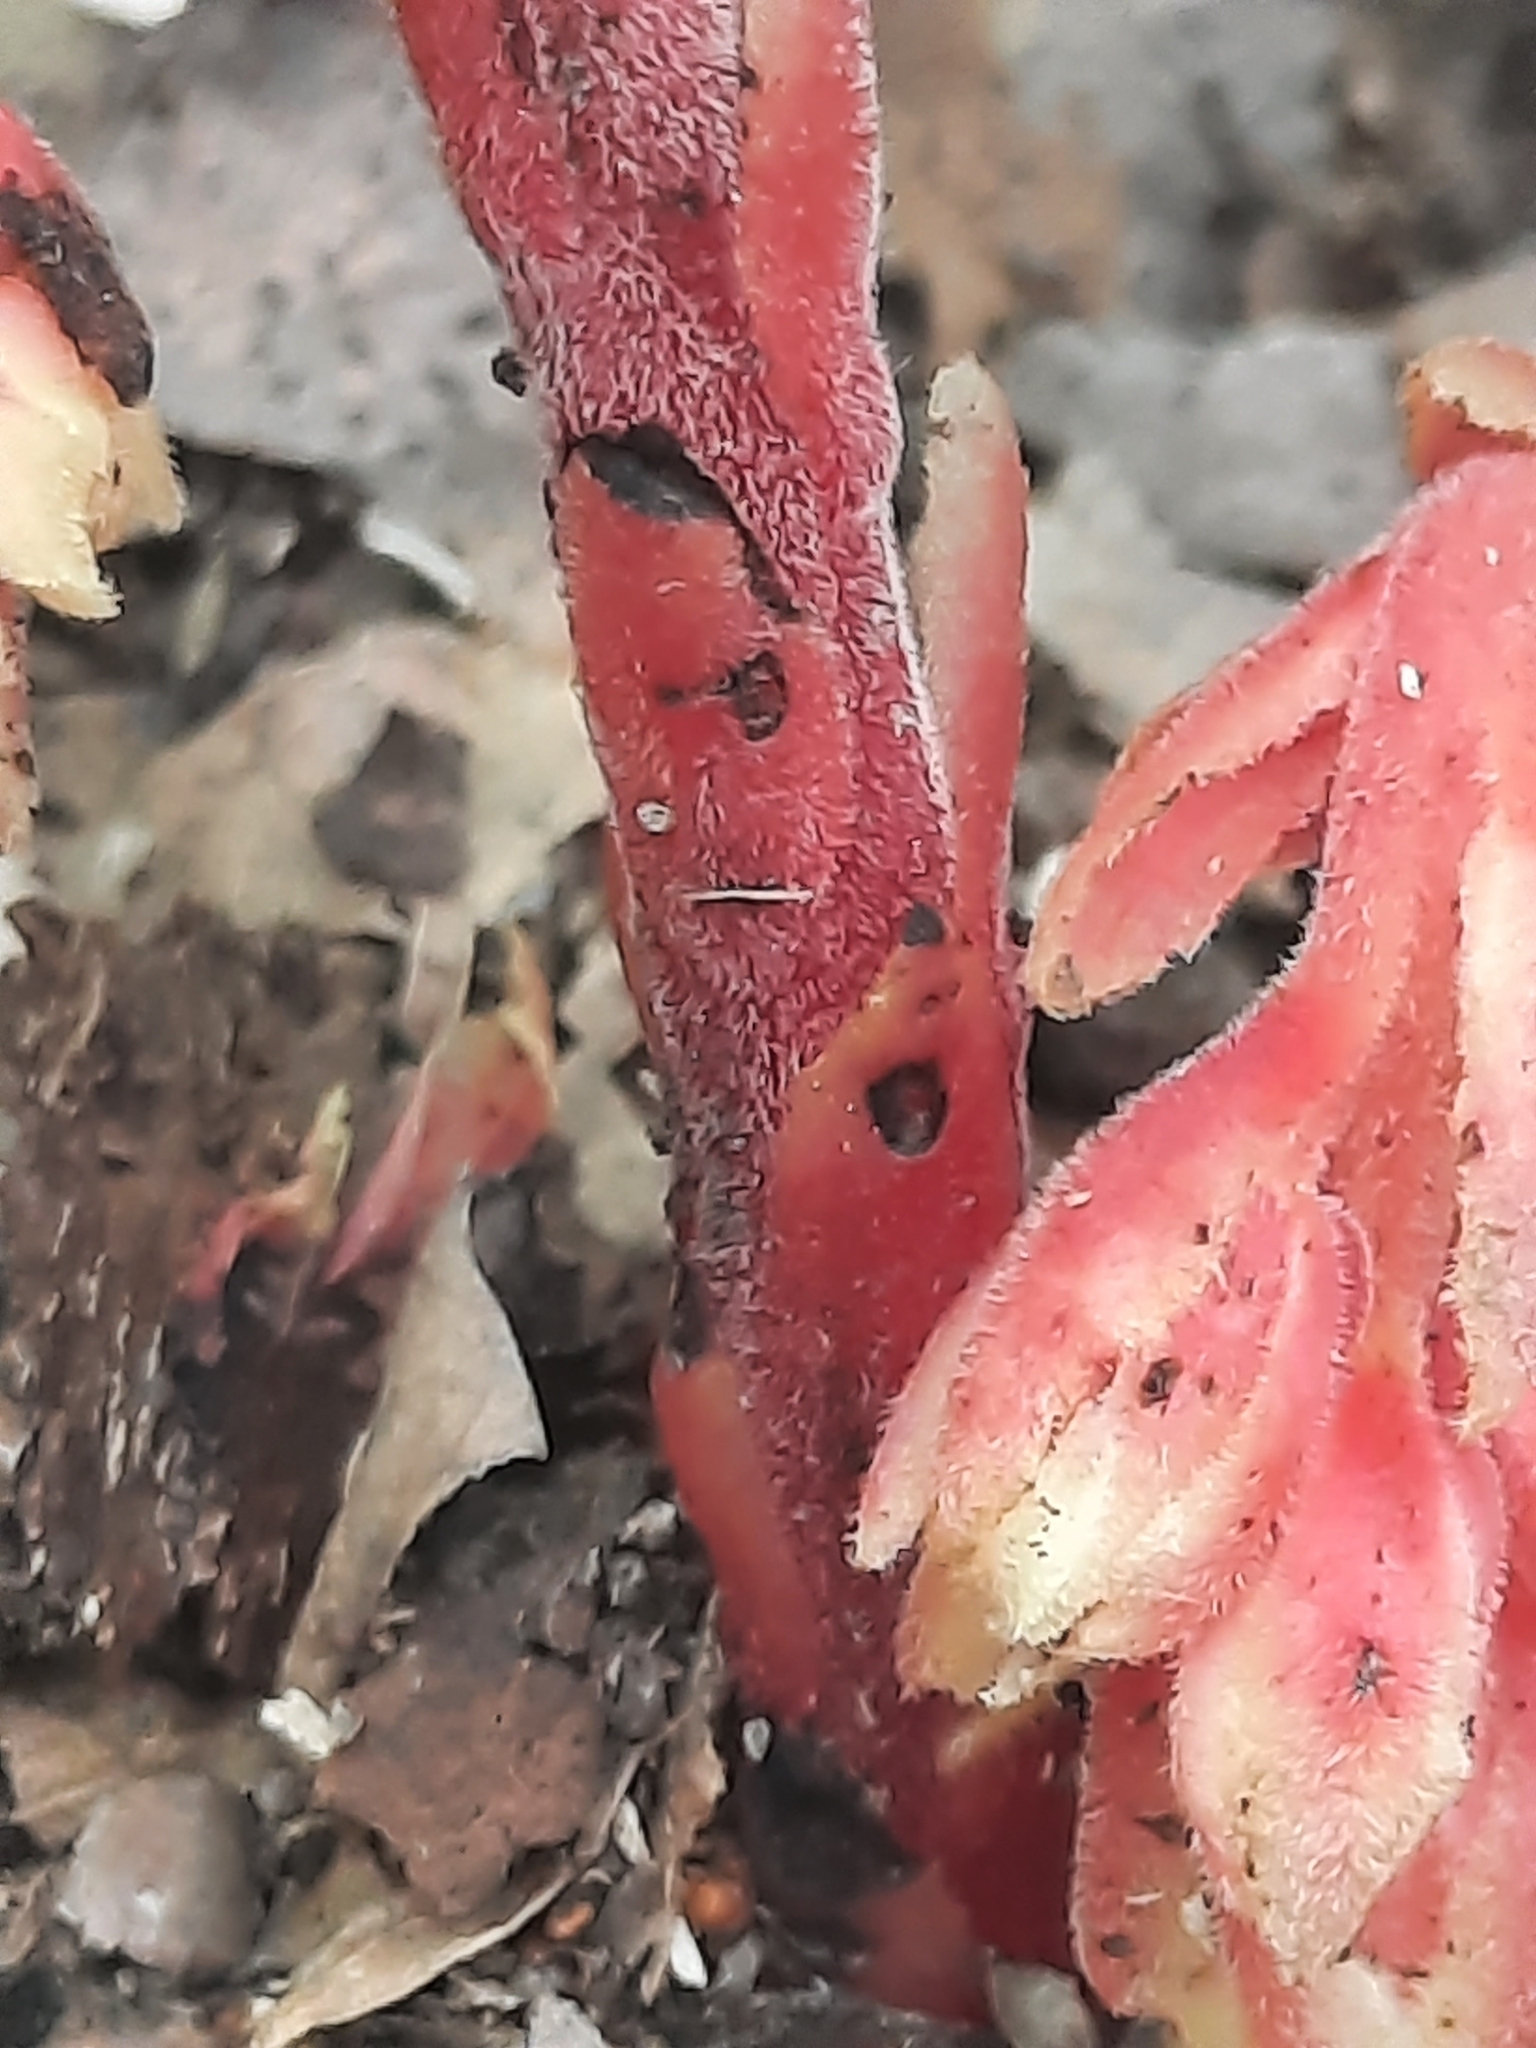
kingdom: Plantae
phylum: Tracheophyta
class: Magnoliopsida
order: Ericales
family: Ericaceae
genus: Hypopitys
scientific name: Hypopitys monotropa
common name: Yellow bird's-nest
